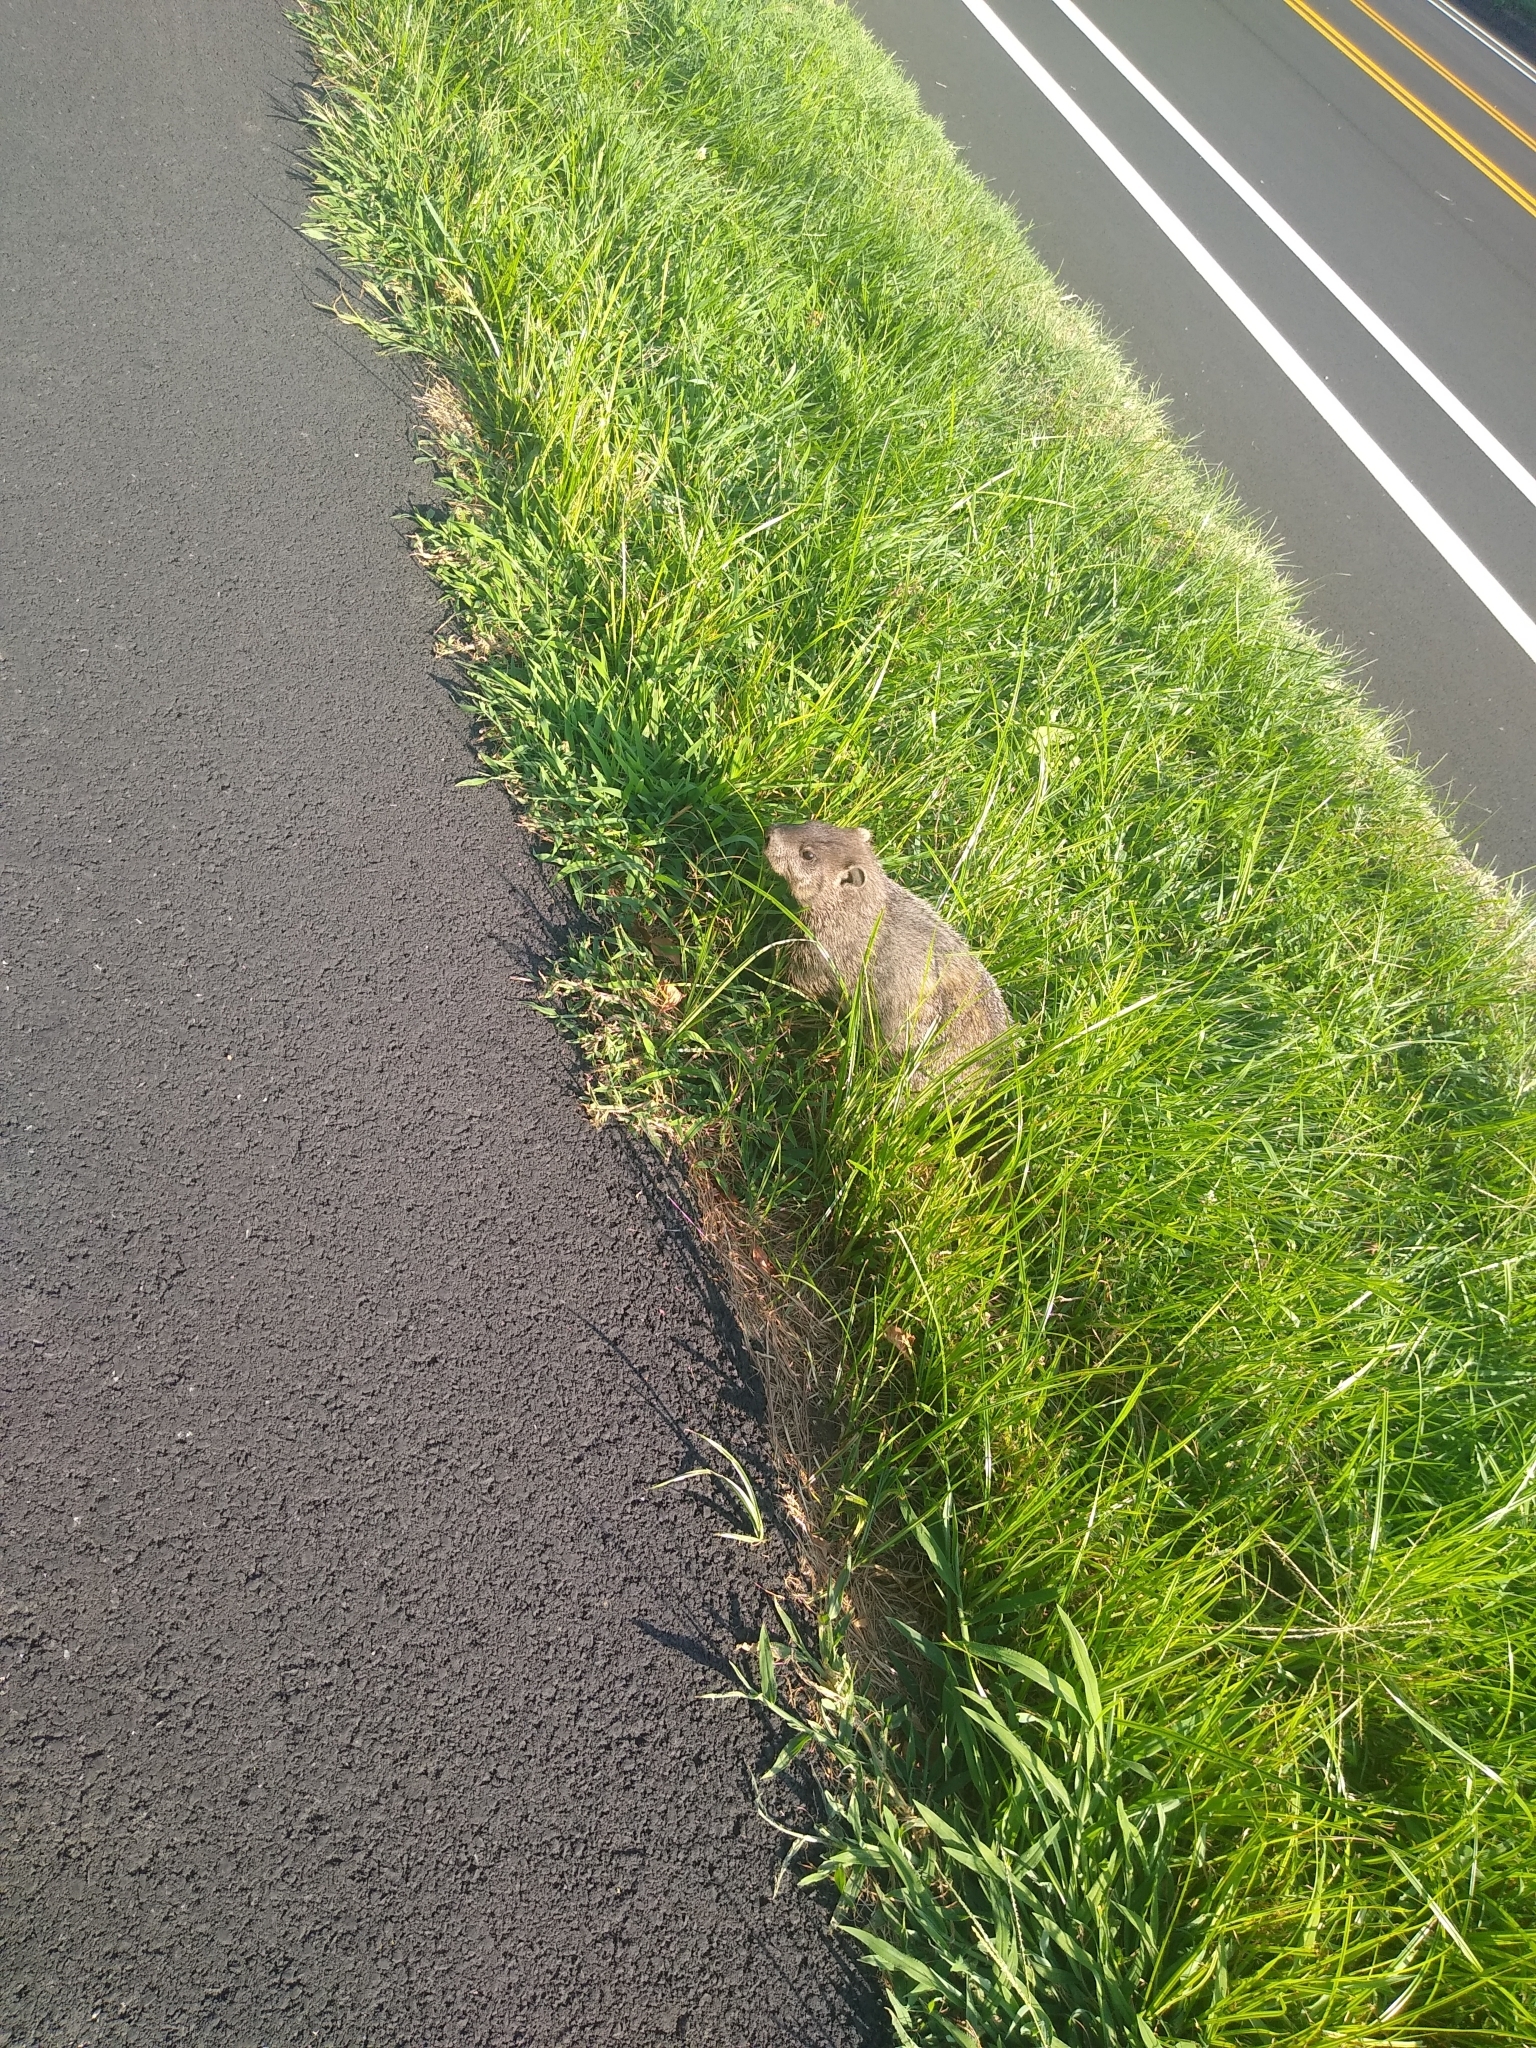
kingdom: Animalia
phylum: Chordata
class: Mammalia
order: Rodentia
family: Sciuridae
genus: Marmota
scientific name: Marmota monax
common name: Groundhog
